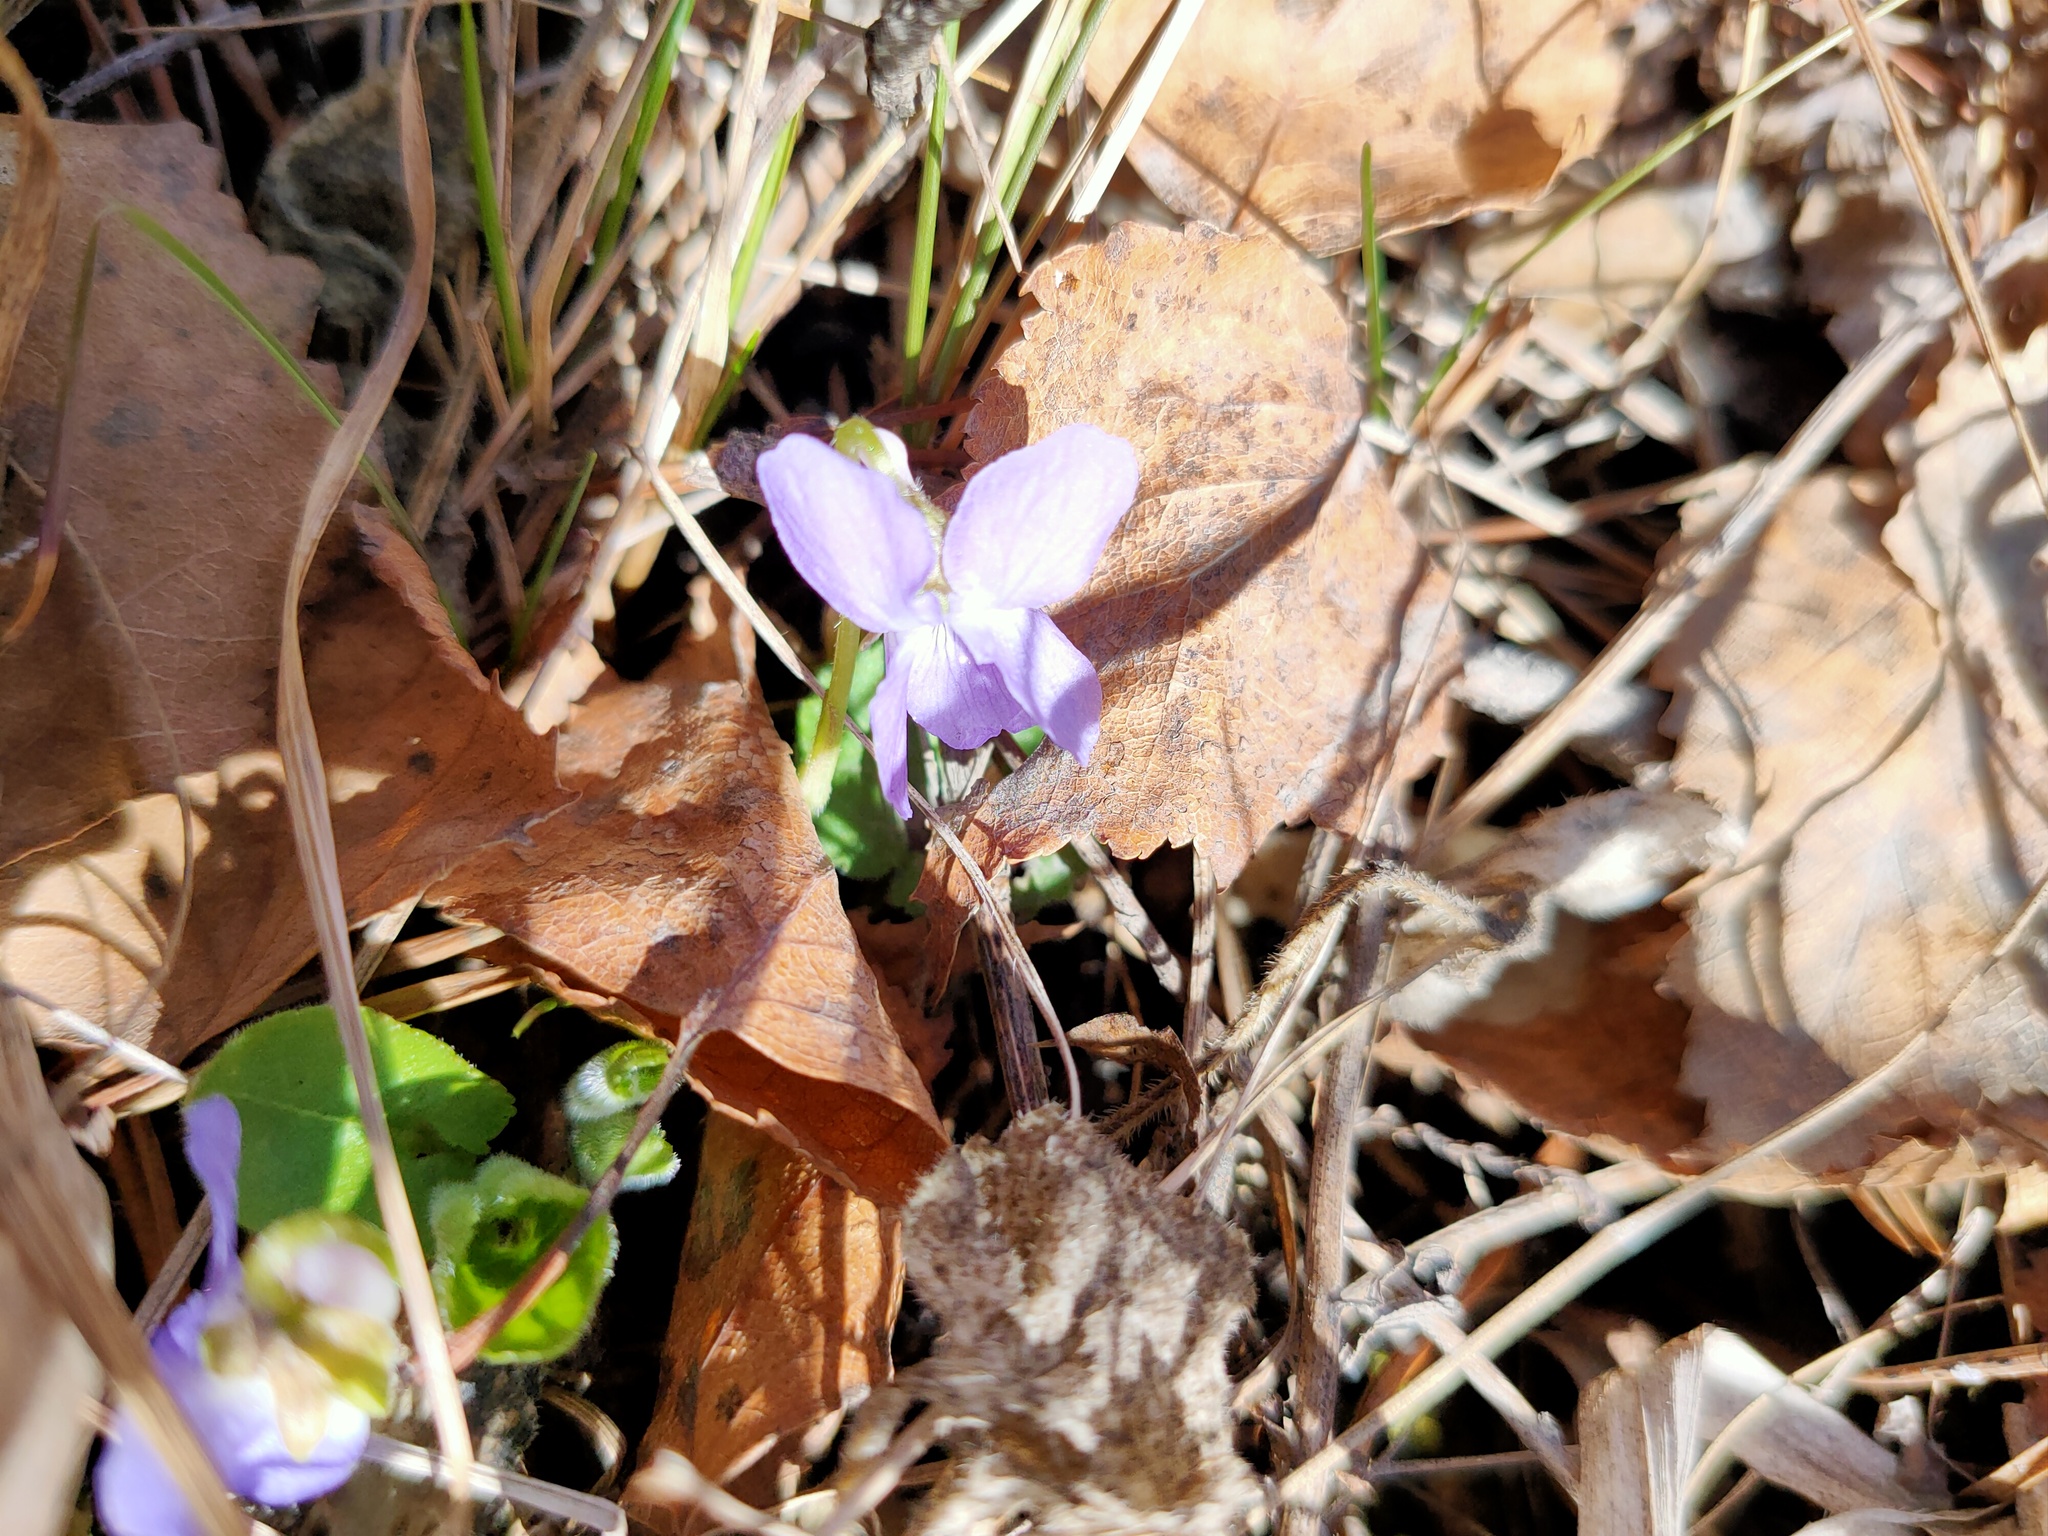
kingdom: Plantae
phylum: Tracheophyta
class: Magnoliopsida
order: Malpighiales
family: Violaceae
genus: Viola
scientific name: Viola hirta
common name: Hairy violet
